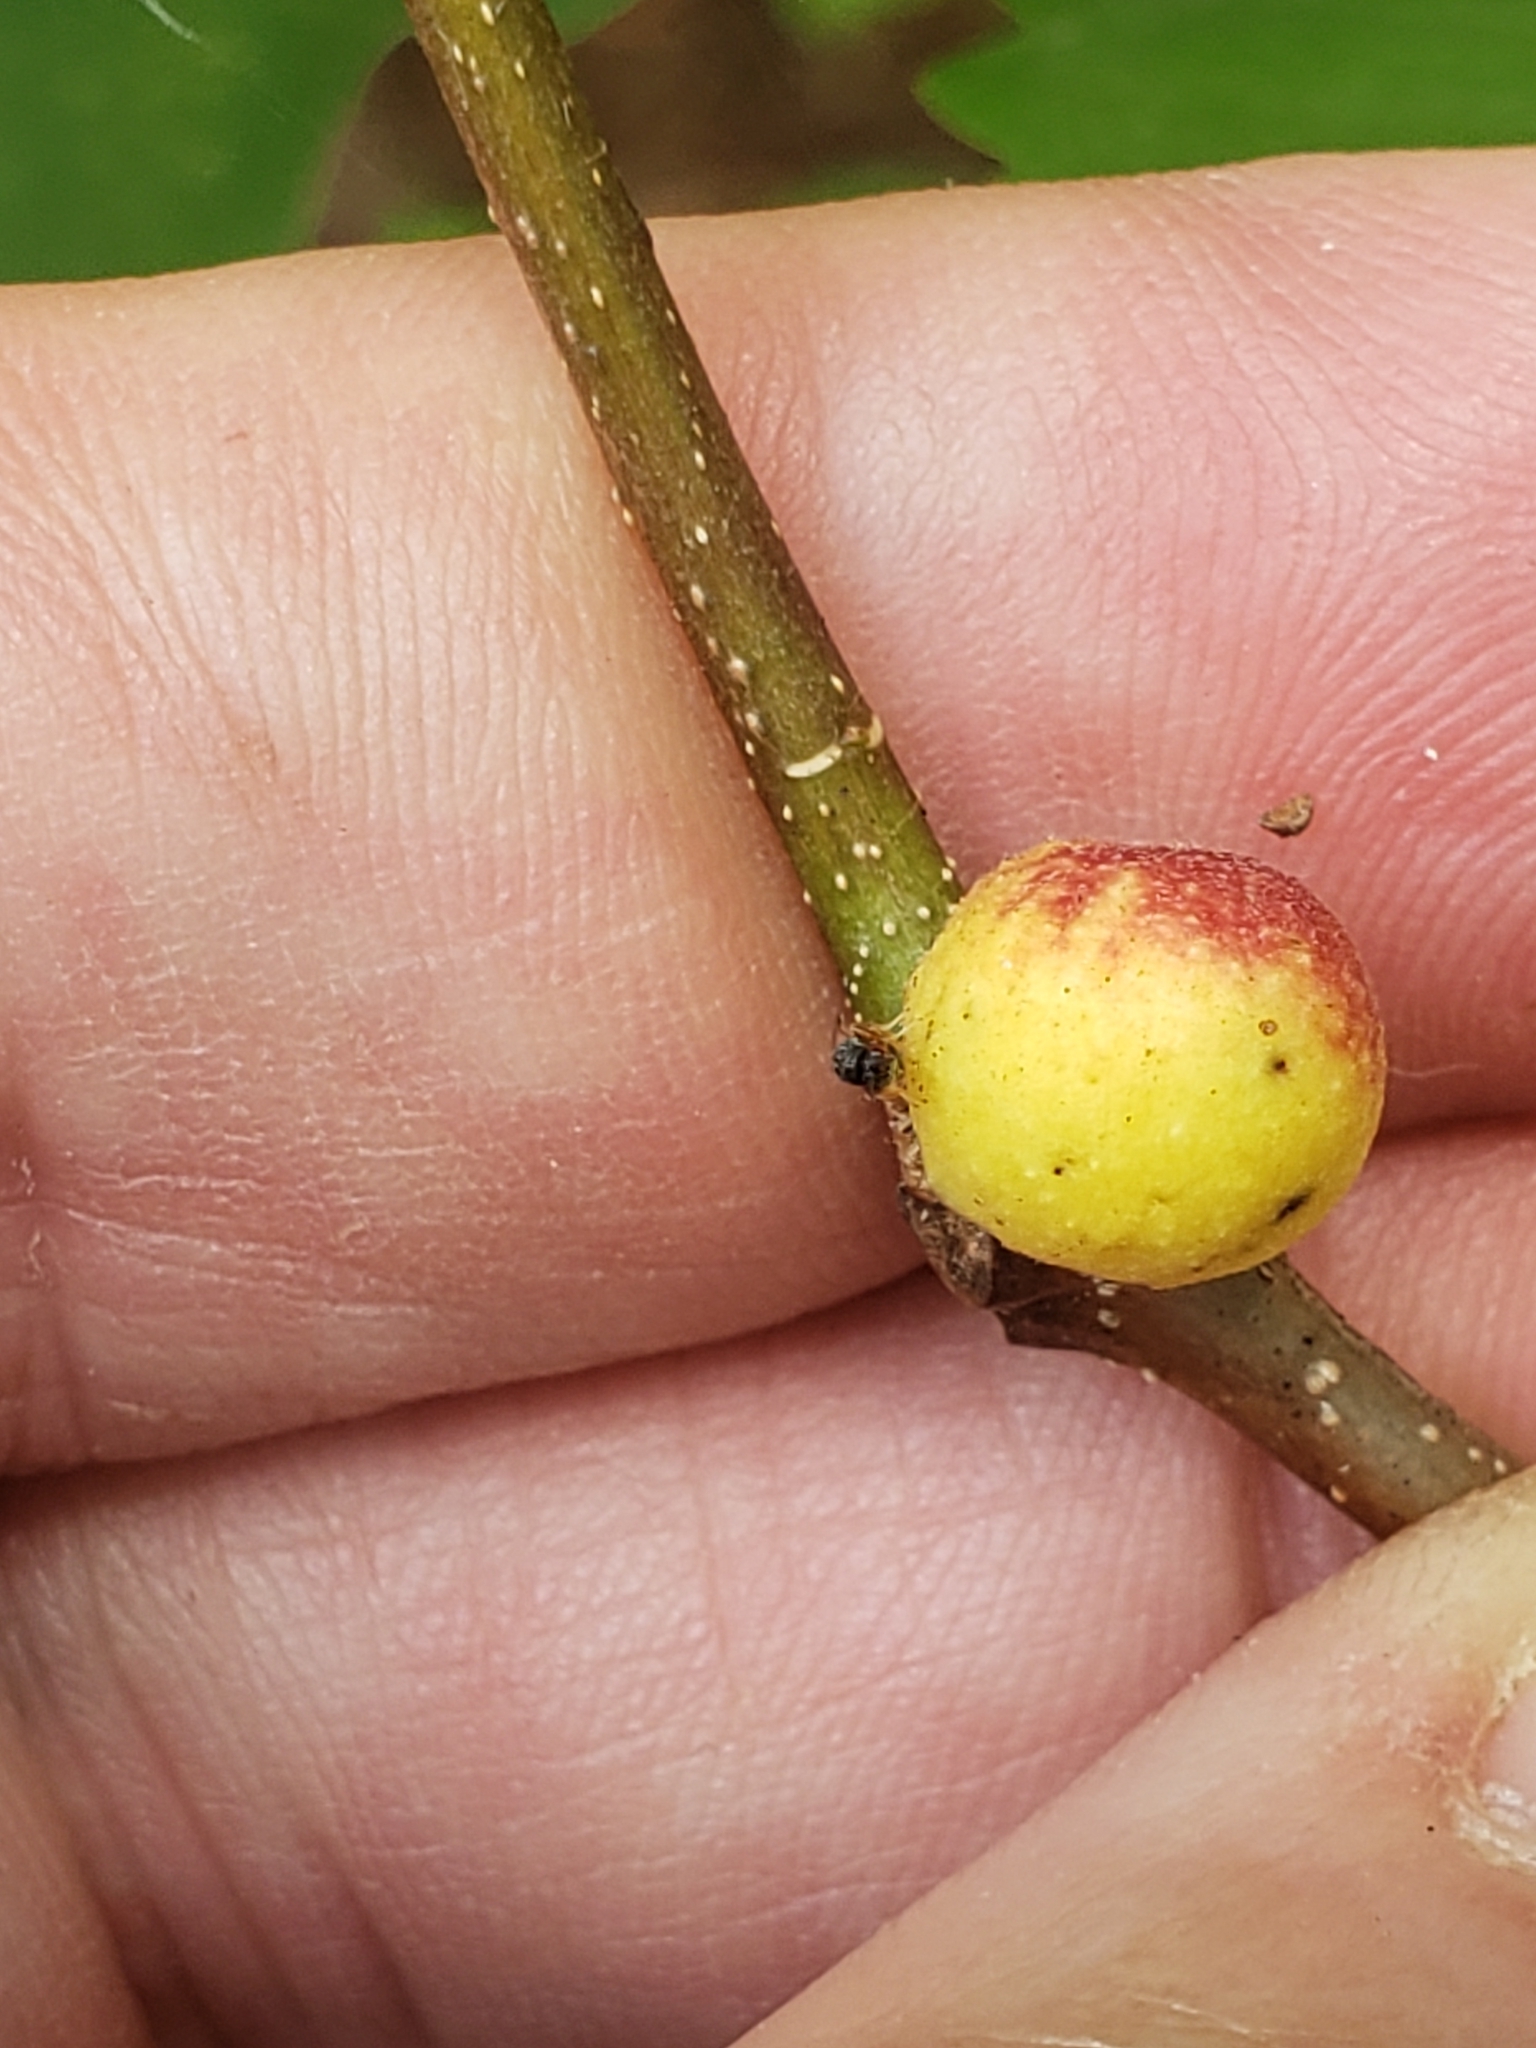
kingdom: Animalia
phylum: Arthropoda
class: Insecta
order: Hymenoptera
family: Cynipidae
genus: Disholcaspis
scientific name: Disholcaspis quercusglobulus
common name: Round bullet gall wasp
